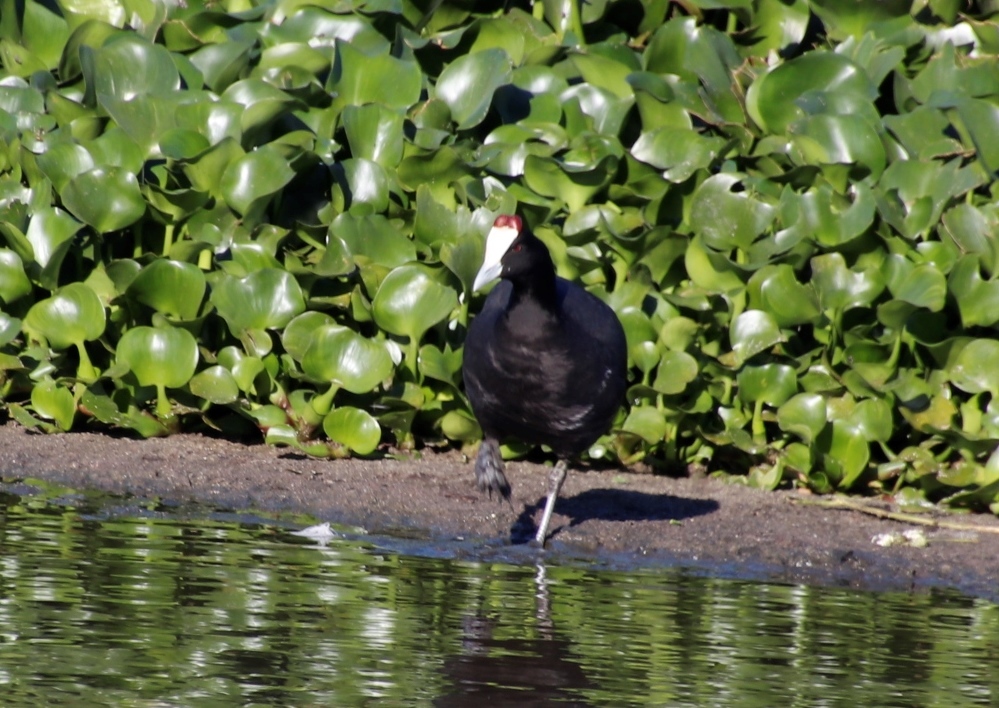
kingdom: Animalia
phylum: Chordata
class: Aves
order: Gruiformes
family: Rallidae
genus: Fulica
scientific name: Fulica cristata
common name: Red-knobbed coot
